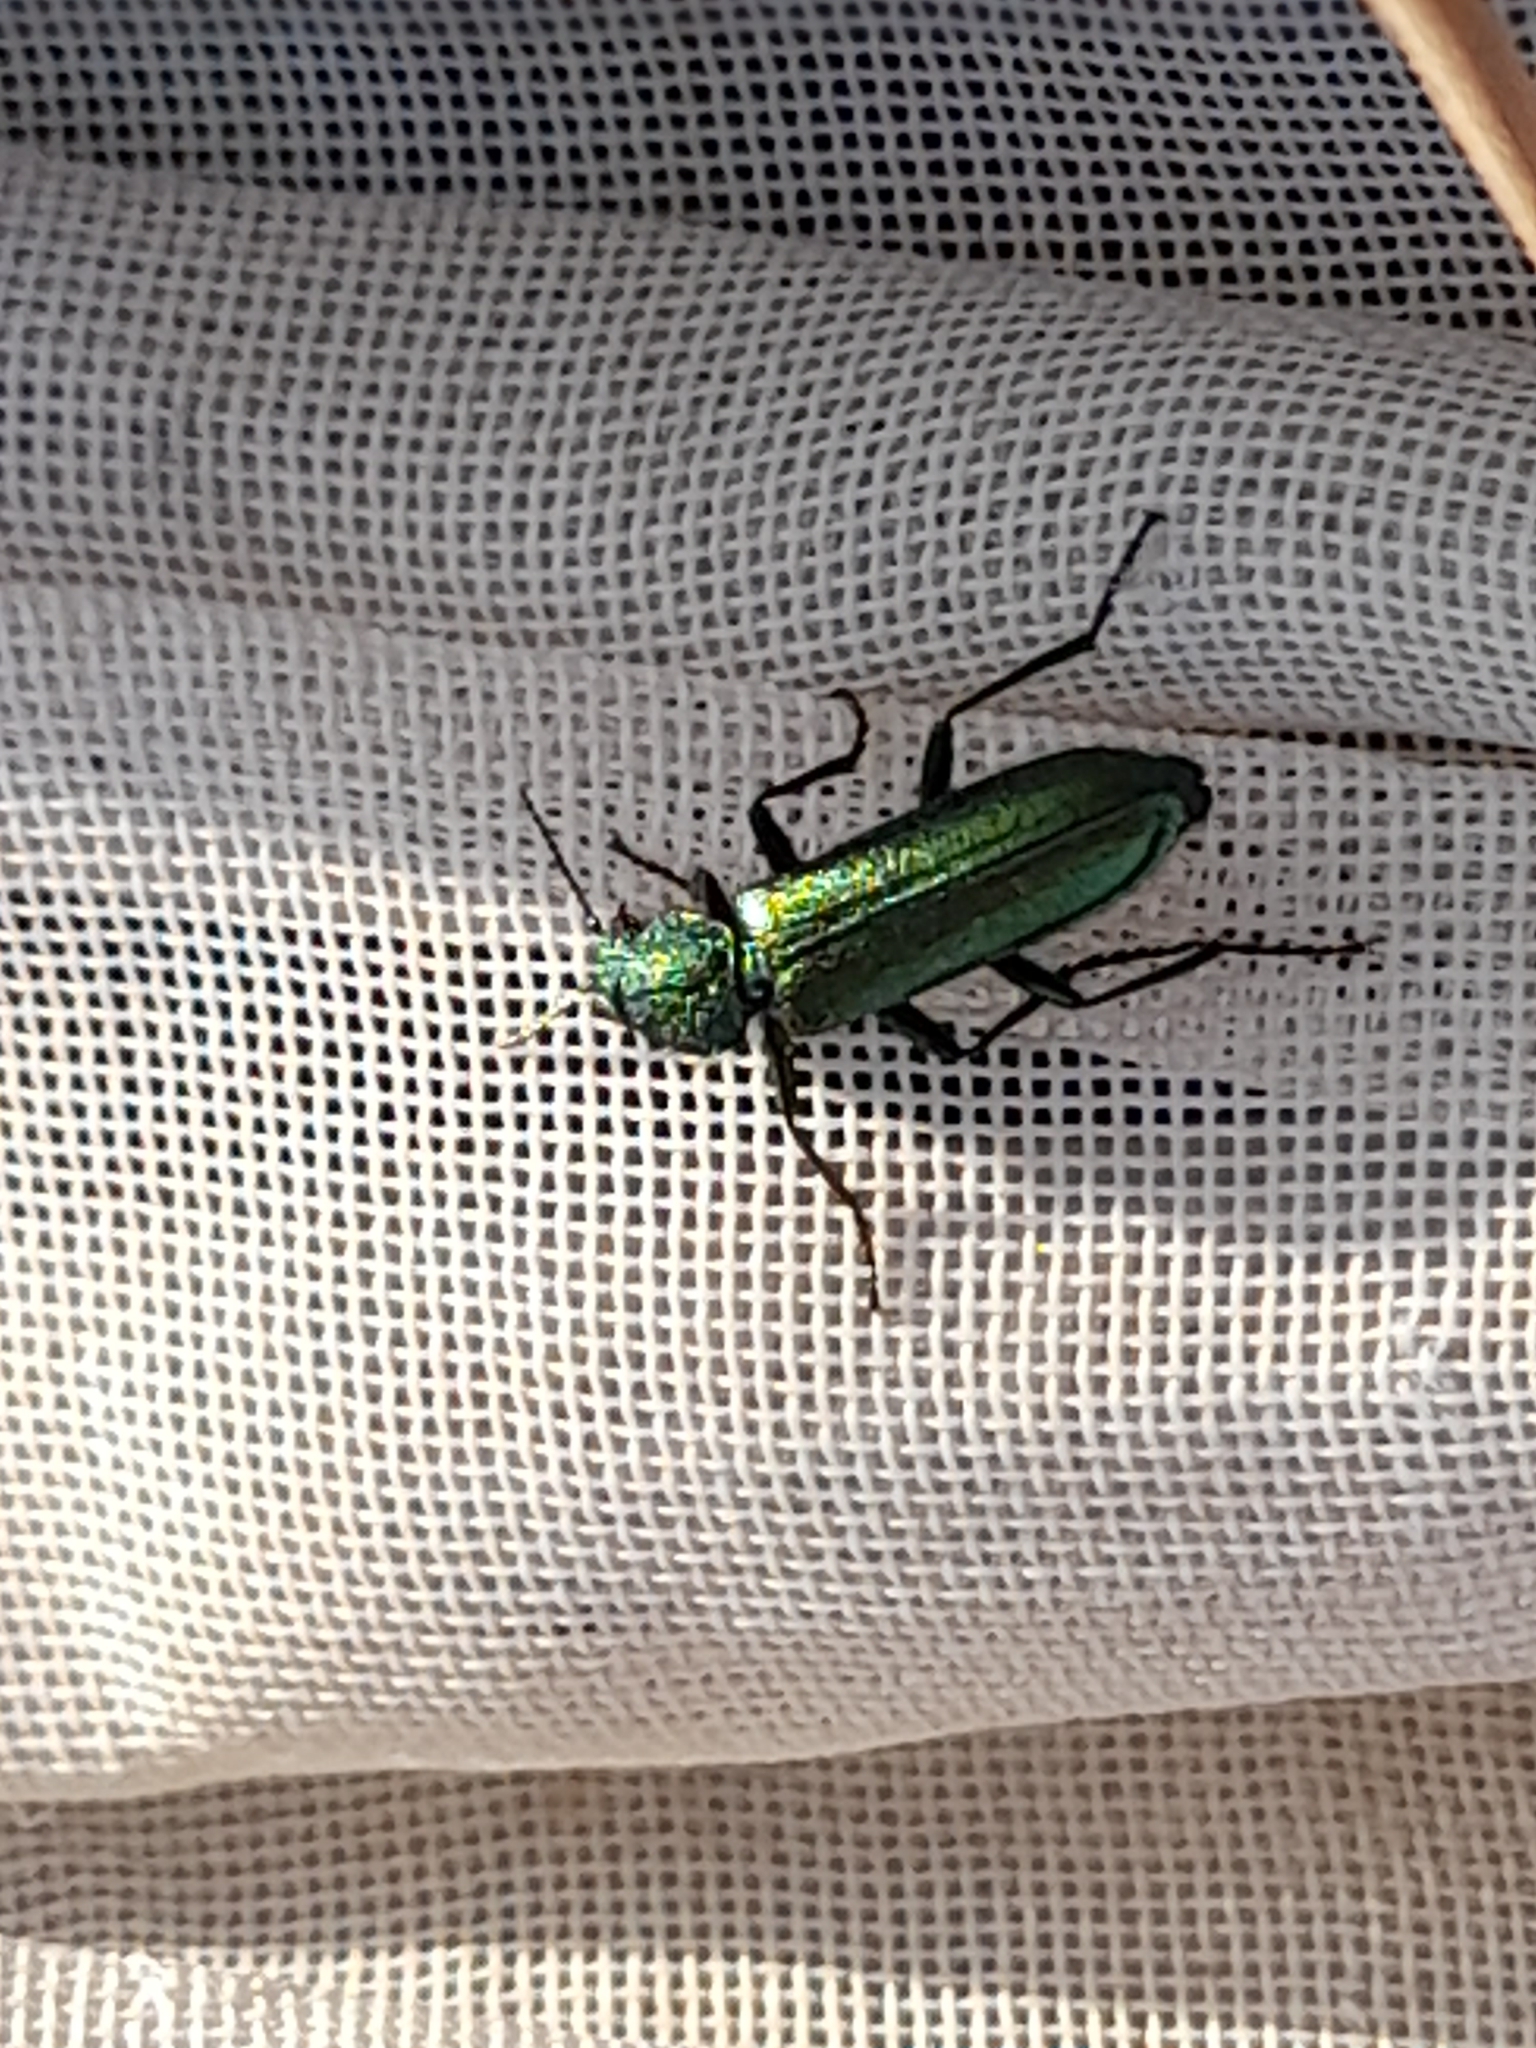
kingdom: Animalia
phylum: Arthropoda
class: Insecta
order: Coleoptera
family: Dasytidae
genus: Psilothrix
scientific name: Psilothrix viridicoerulea
